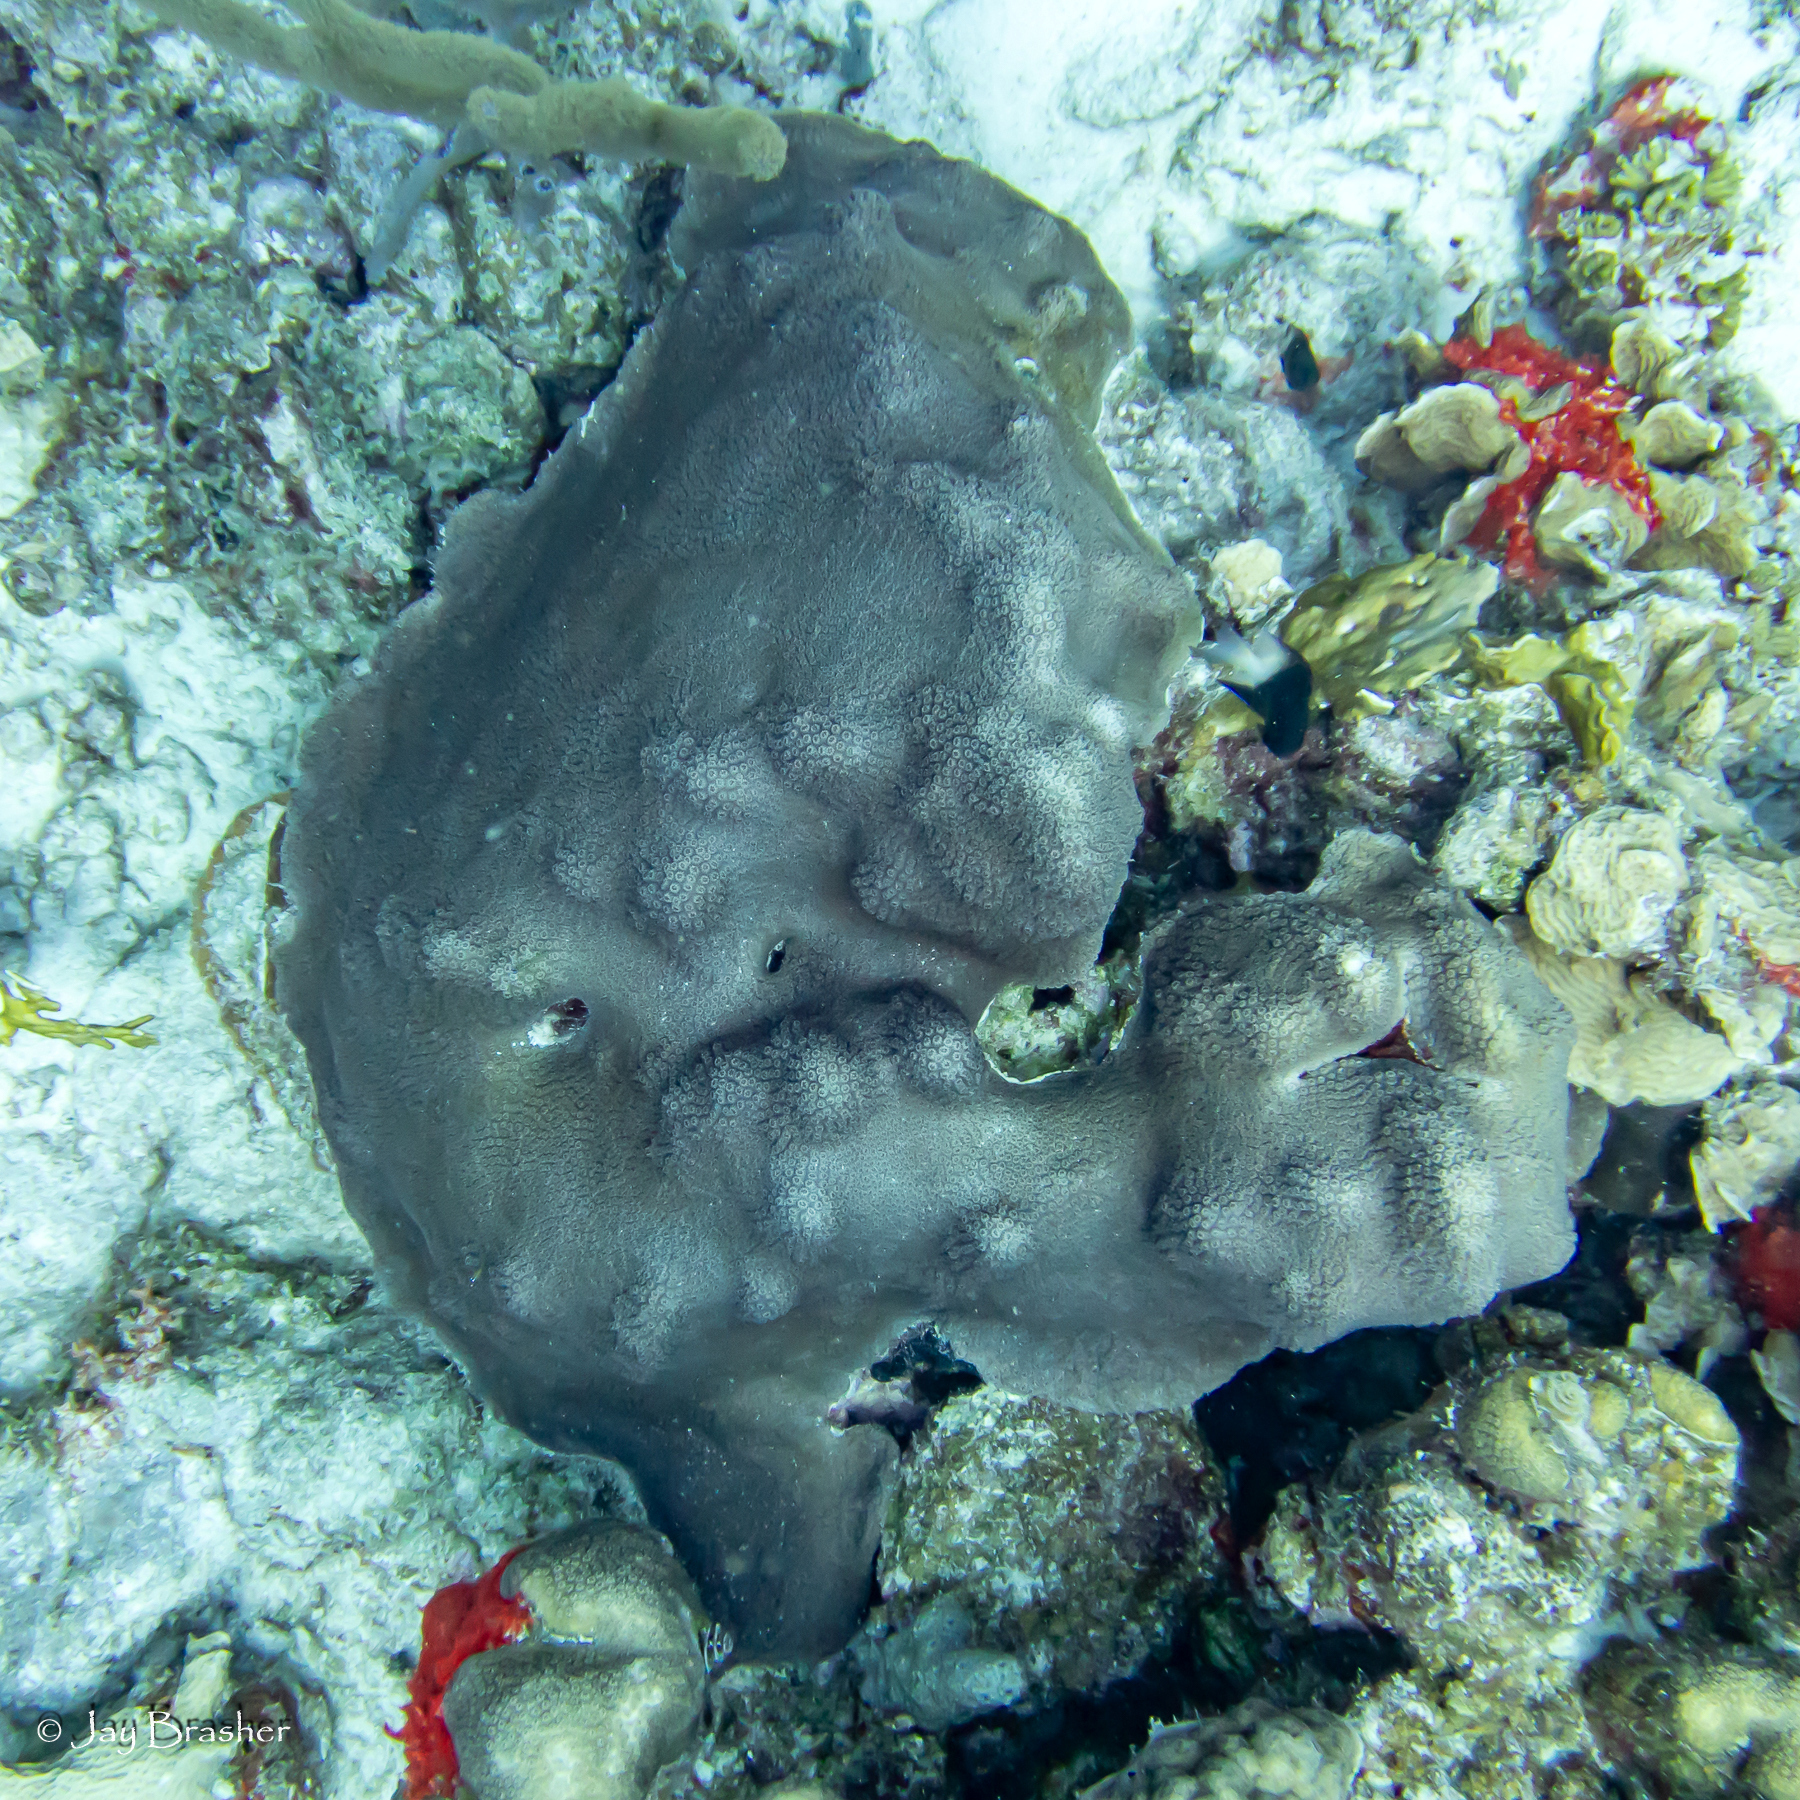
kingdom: Animalia
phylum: Cnidaria
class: Anthozoa
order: Scleractinia
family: Merulinidae
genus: Orbicella
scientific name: Orbicella faveolata
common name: Mountainous star coral
